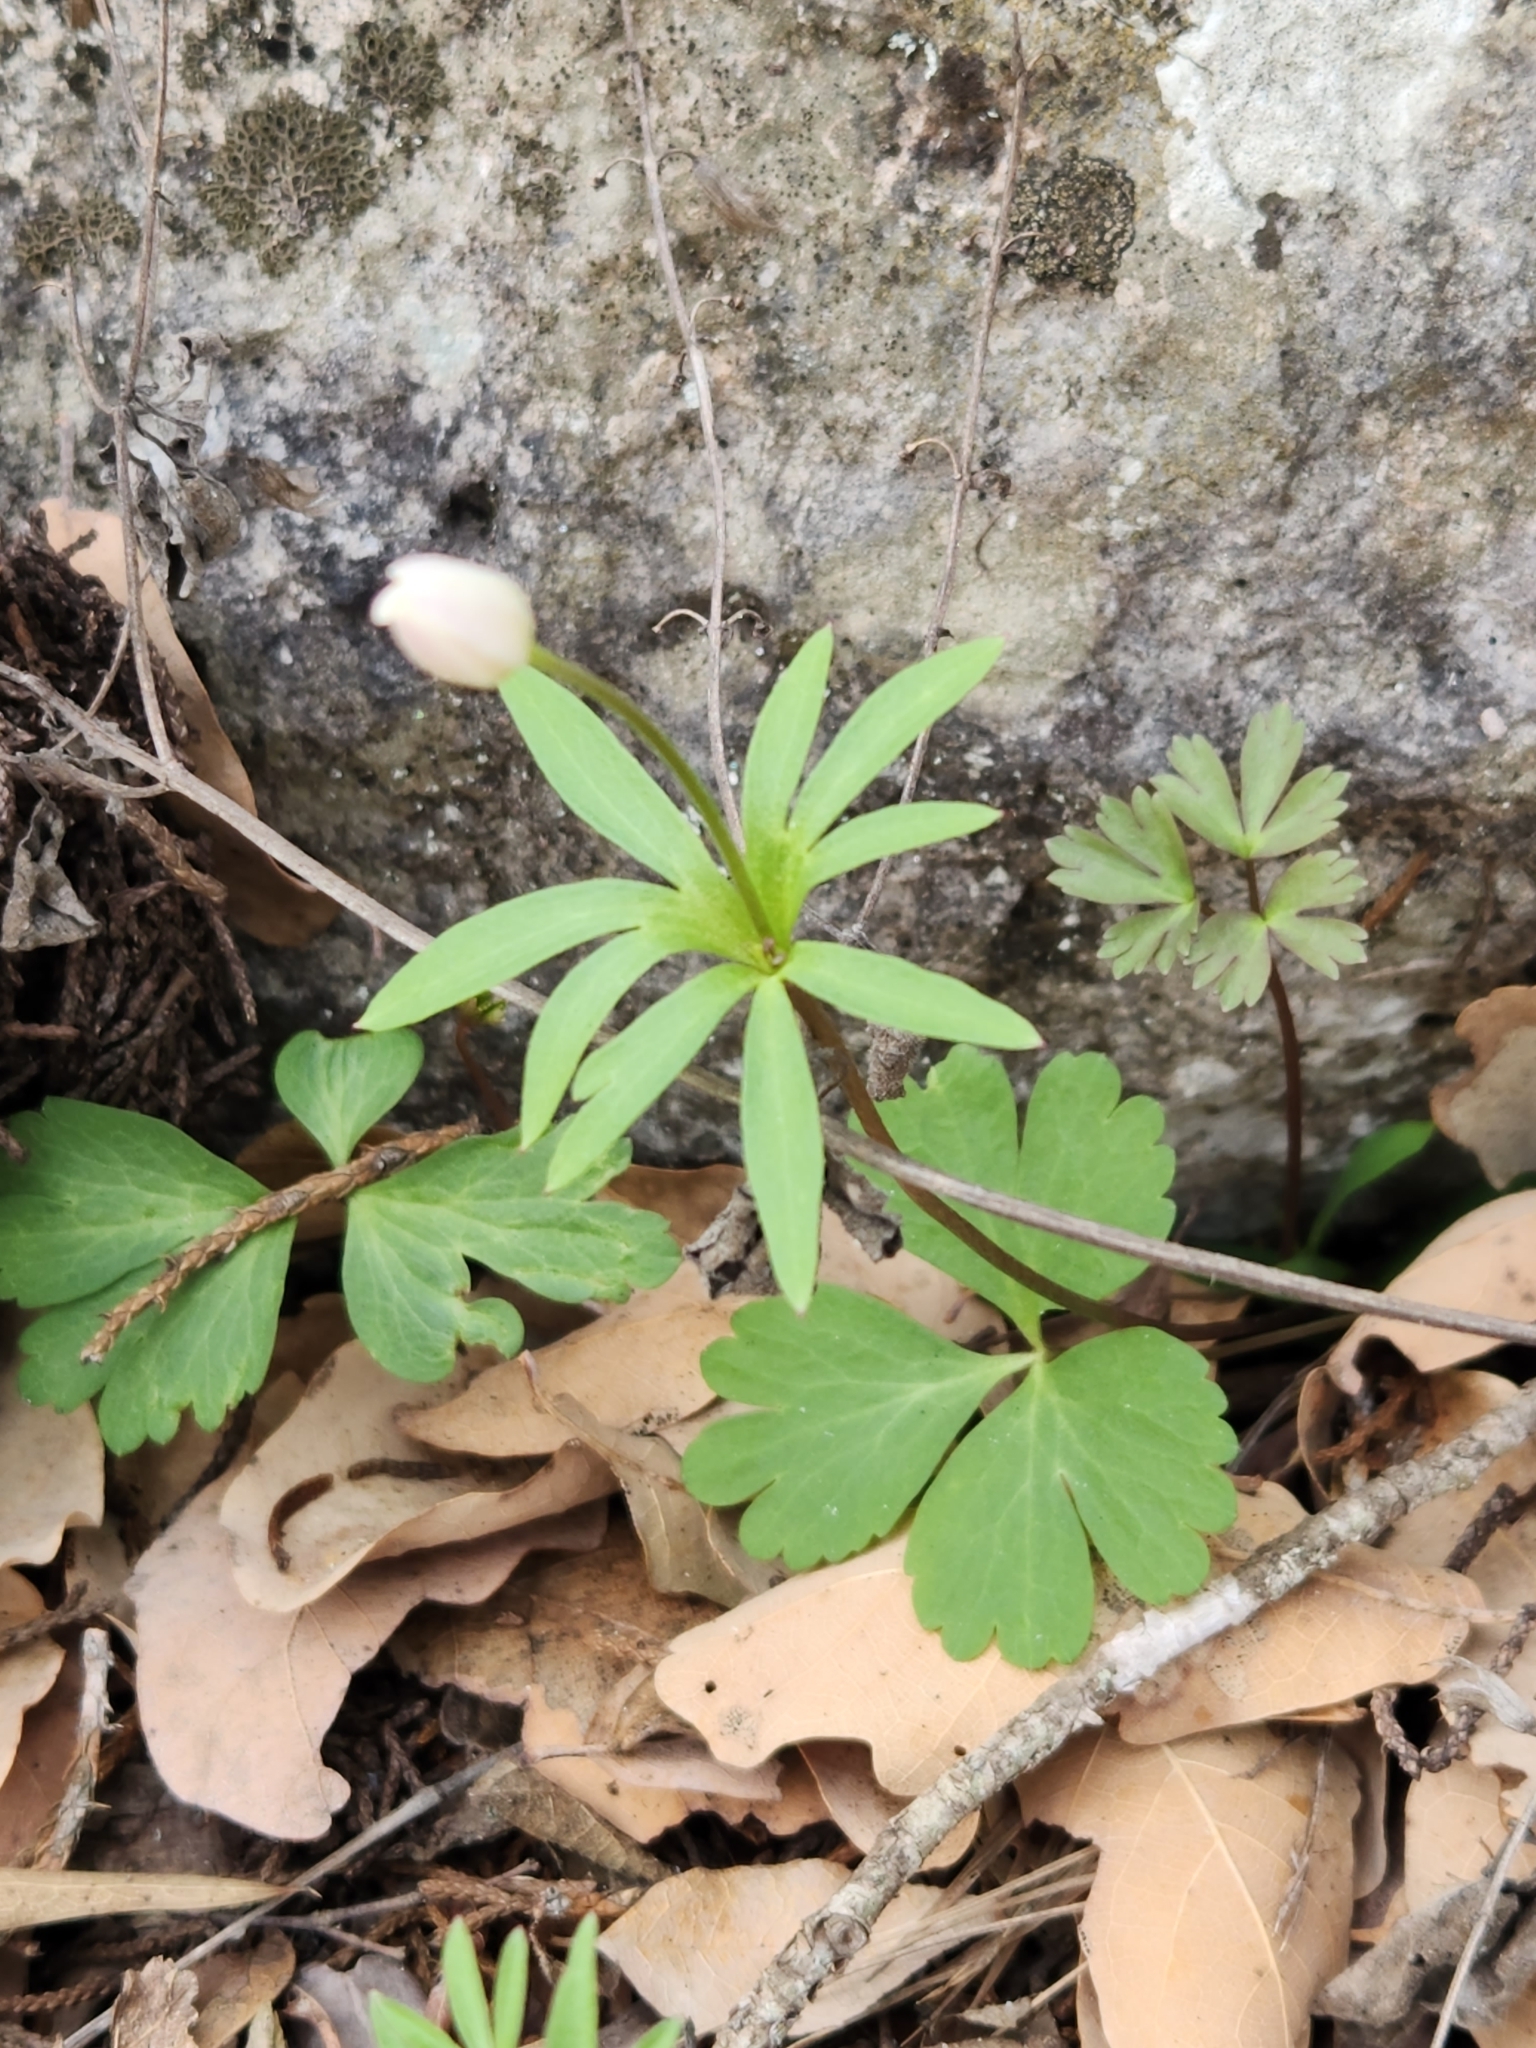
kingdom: Plantae
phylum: Tracheophyta
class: Magnoliopsida
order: Ranunculales
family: Ranunculaceae
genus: Anemone
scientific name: Anemone edwardsiana
